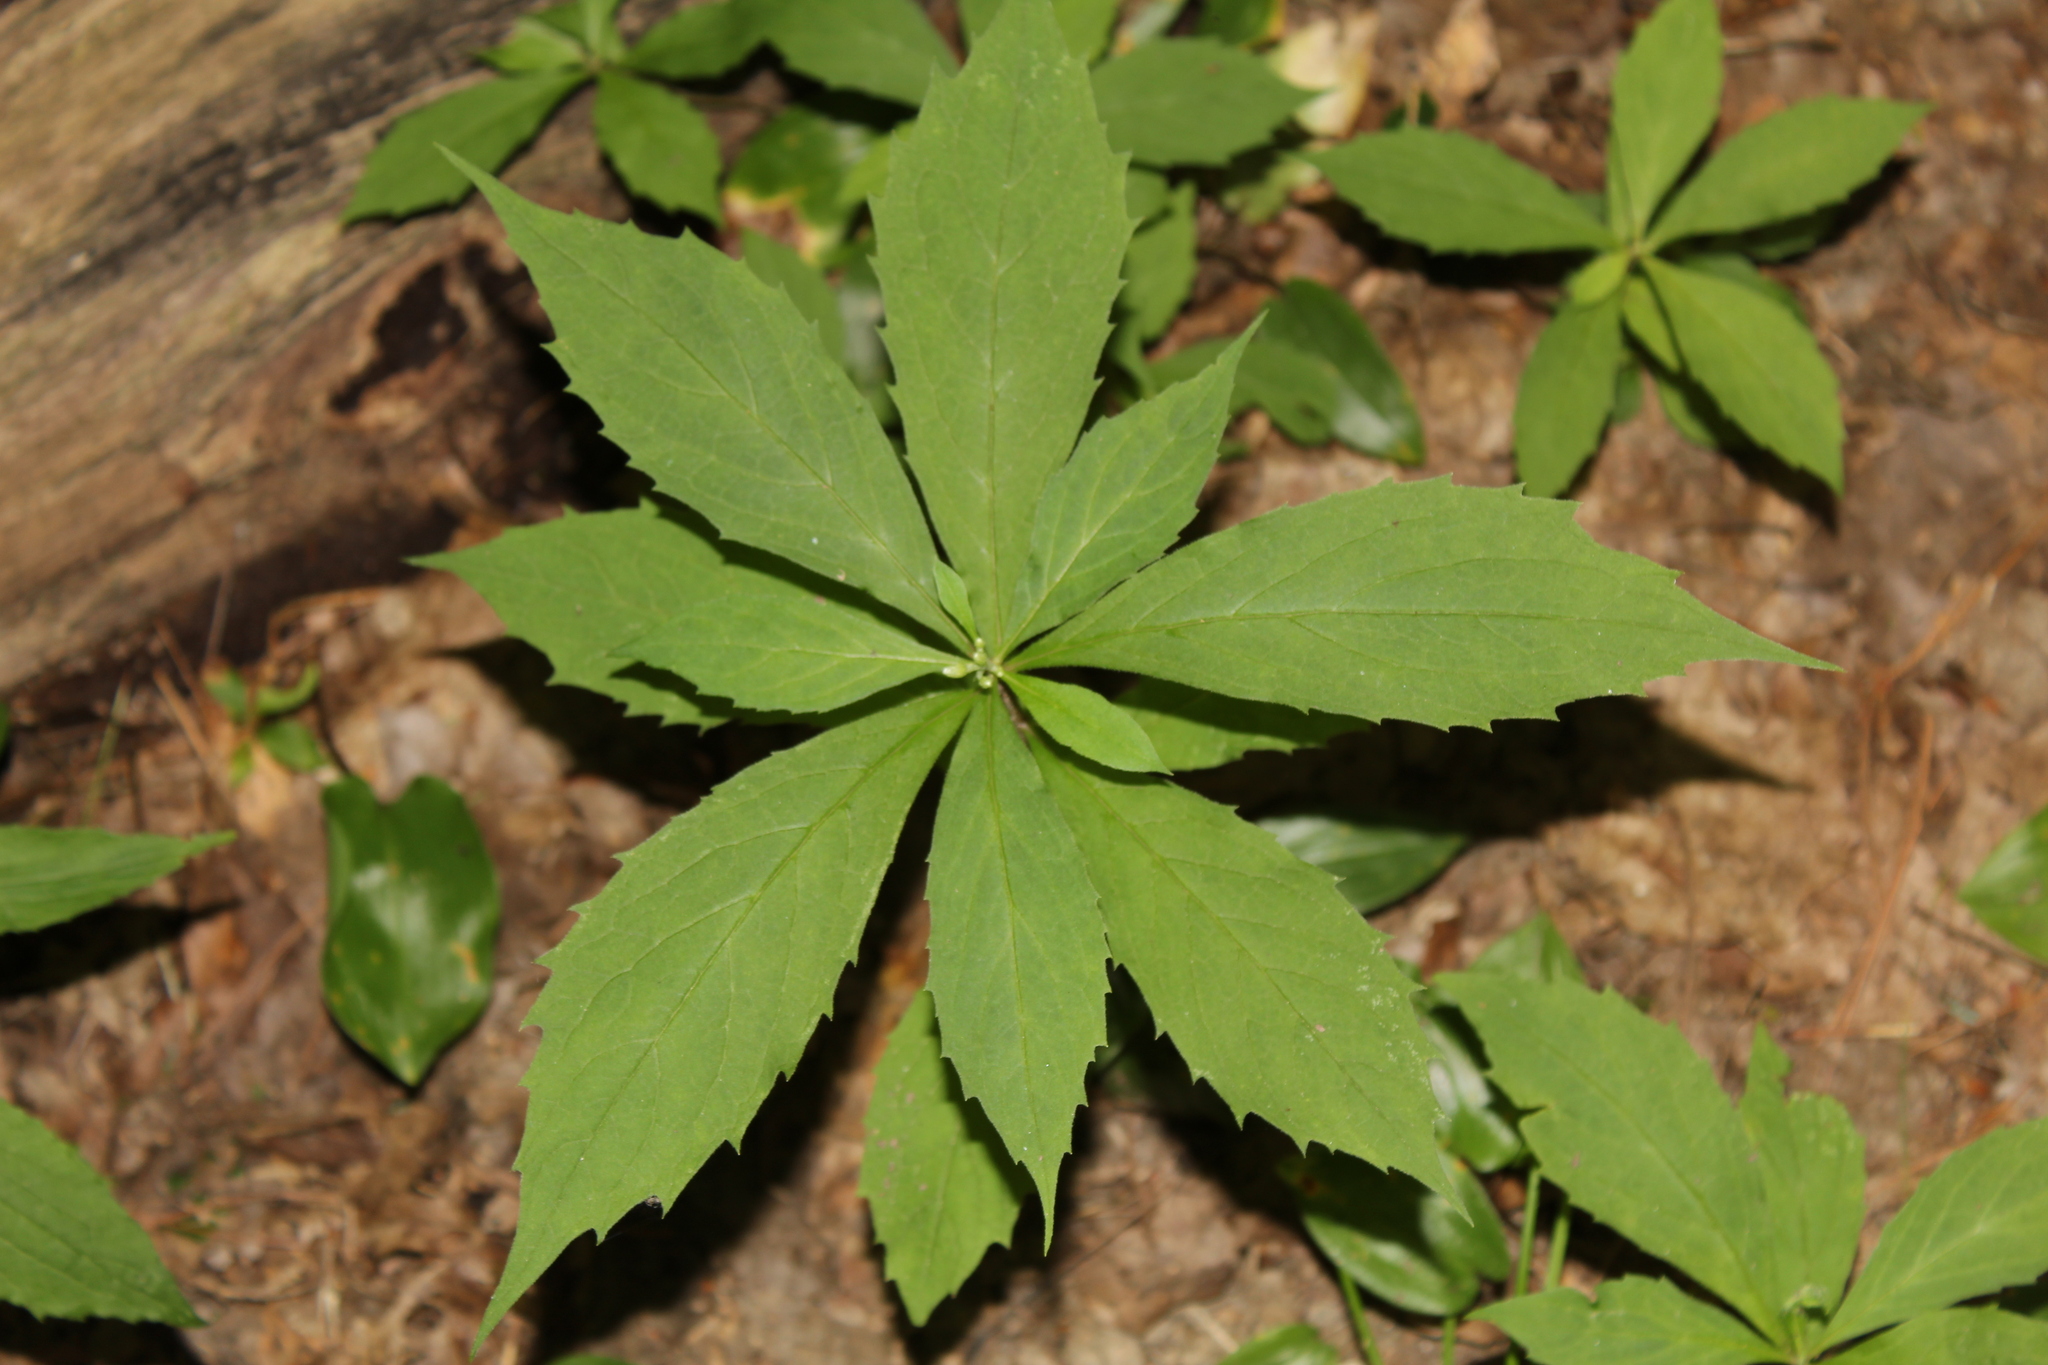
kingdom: Plantae
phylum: Tracheophyta
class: Magnoliopsida
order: Asterales
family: Asteraceae
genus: Oclemena
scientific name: Oclemena acuminata
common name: Mountain aster
